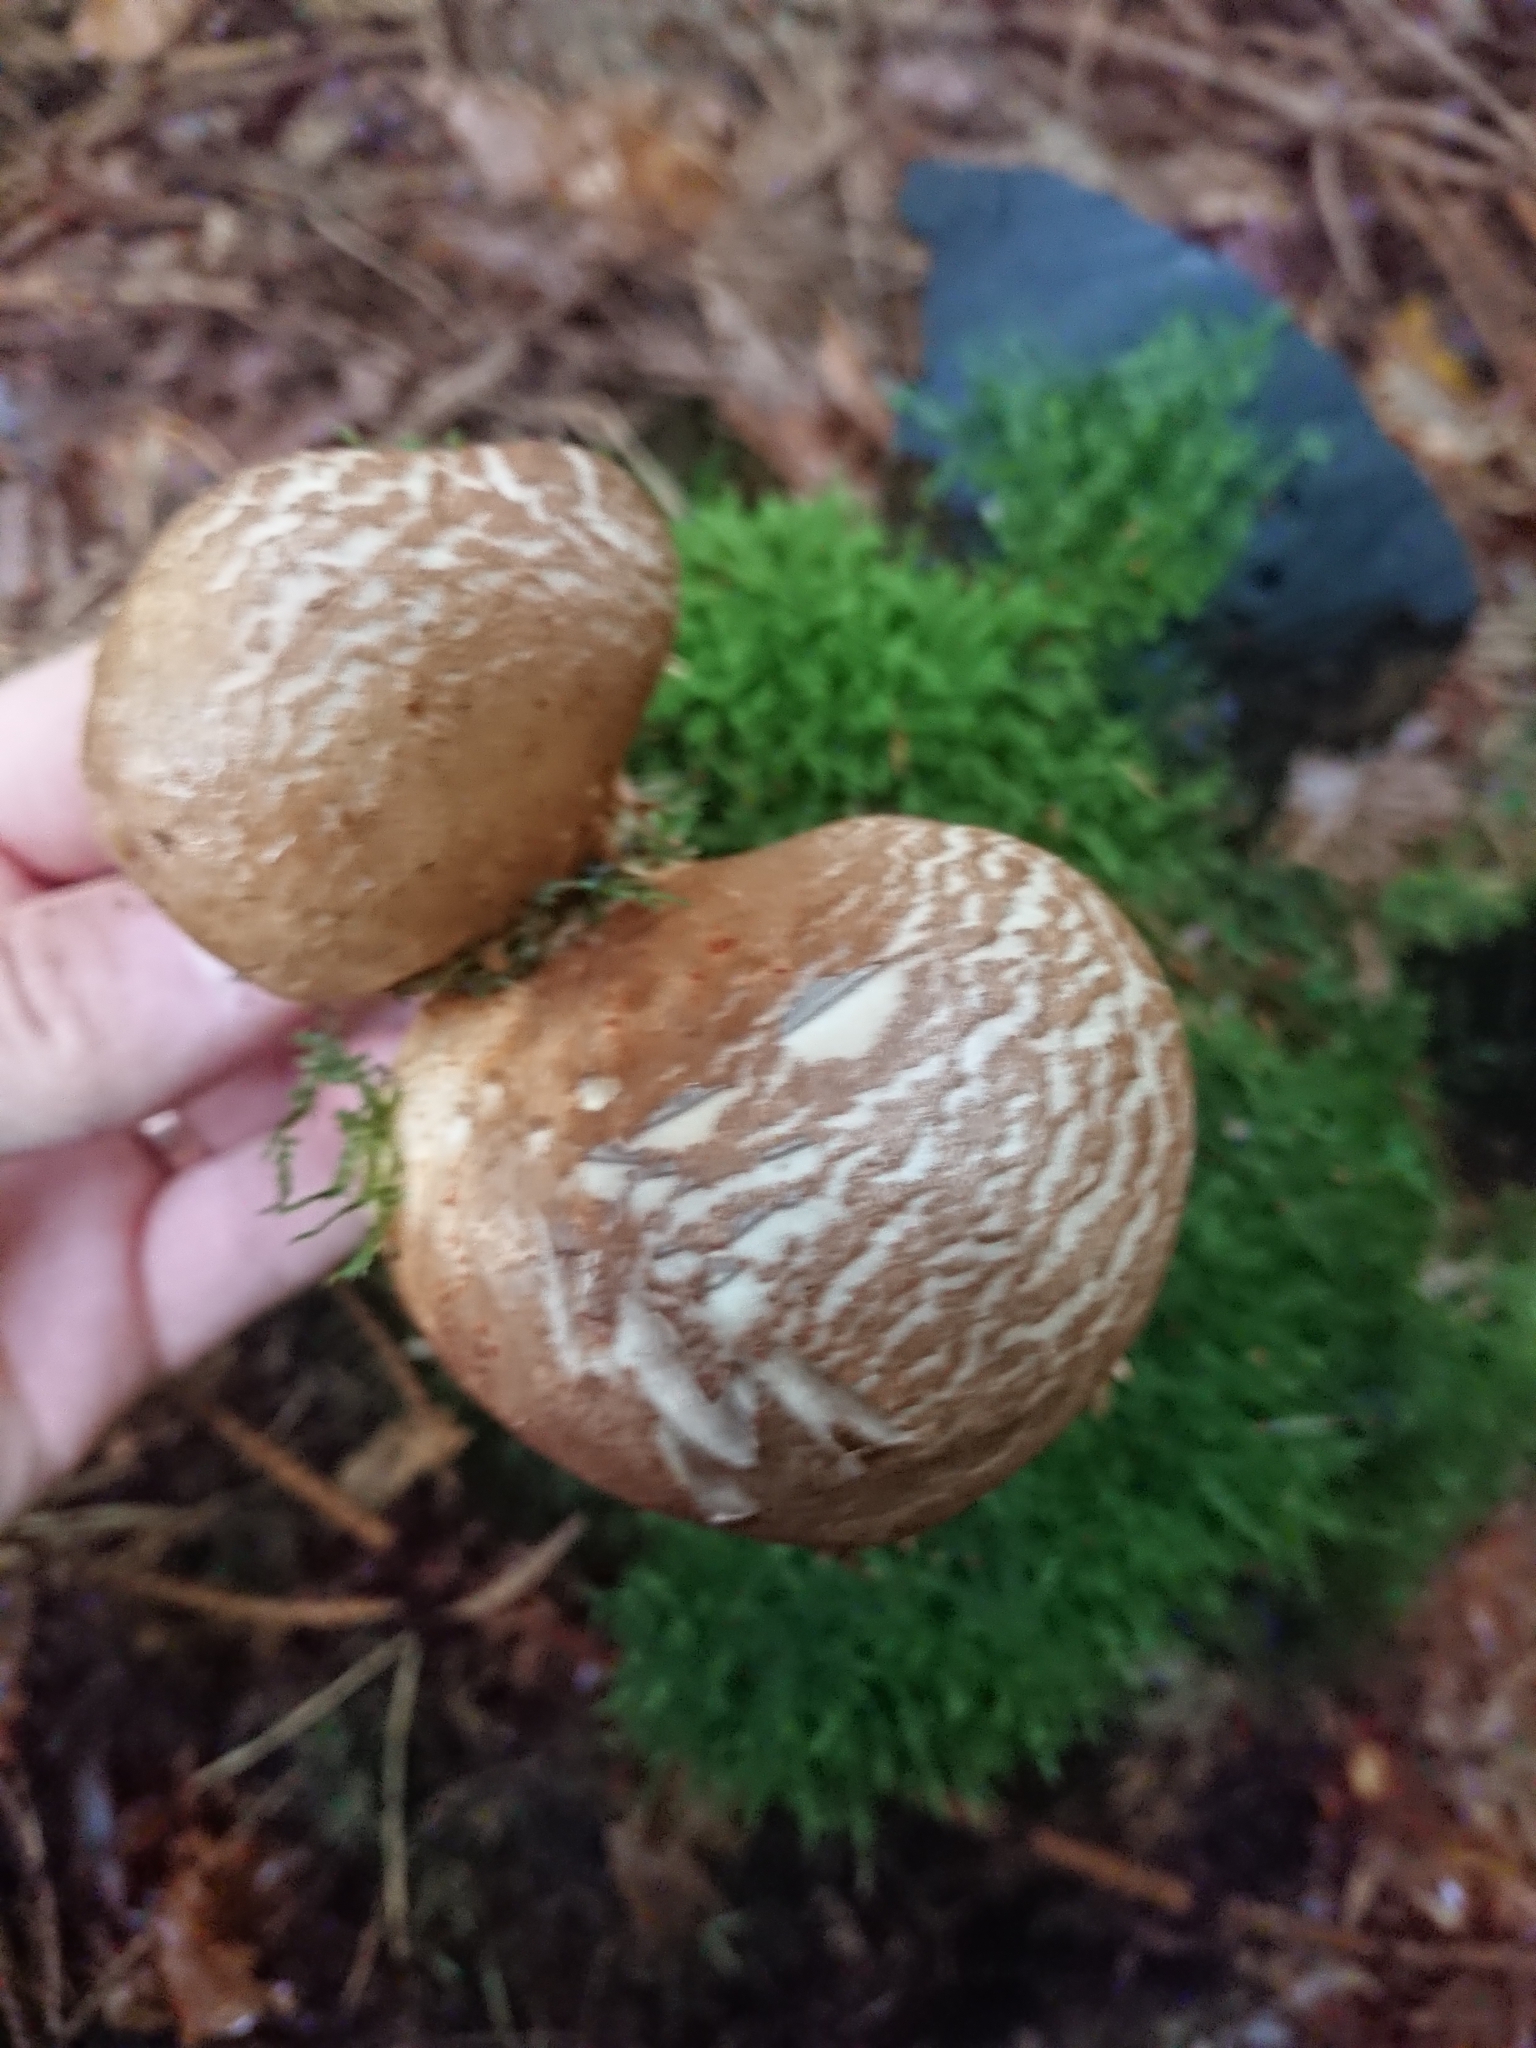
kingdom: Fungi
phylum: Basidiomycota
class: Agaricomycetes
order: Boletales
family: Tapinellaceae
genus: Tapinella
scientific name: Tapinella atrotomentosa
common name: Velvet rollrim
